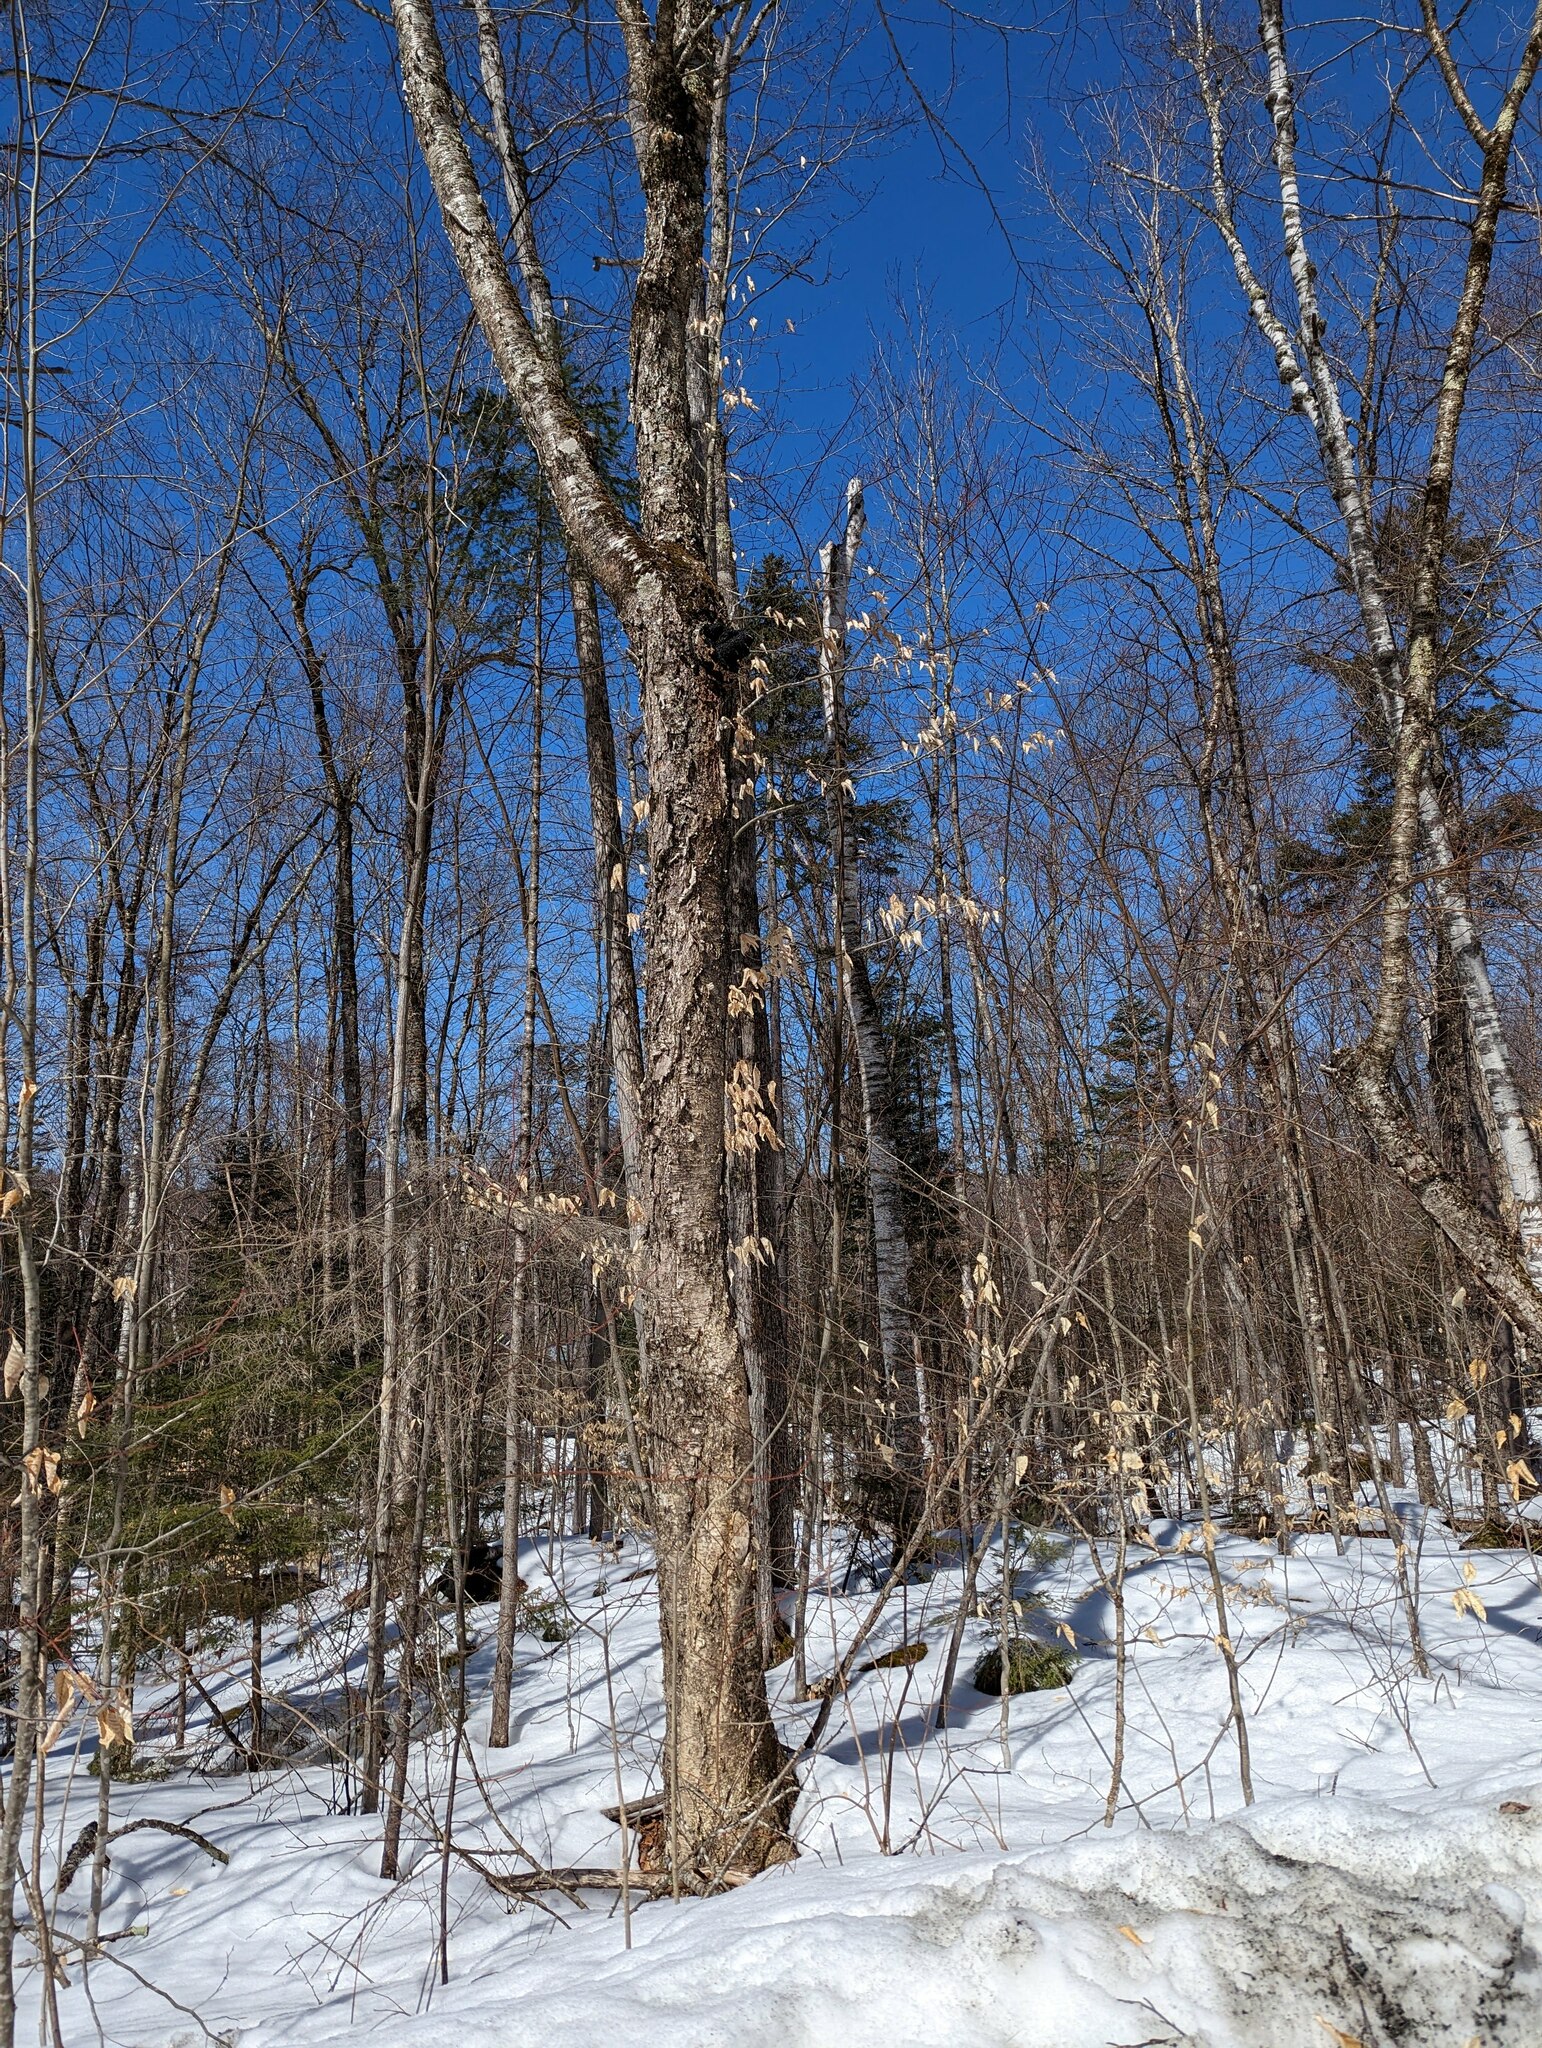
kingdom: Plantae
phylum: Tracheophyta
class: Magnoliopsida
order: Fagales
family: Betulaceae
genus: Betula
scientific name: Betula alleghaniensis
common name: Yellow birch
